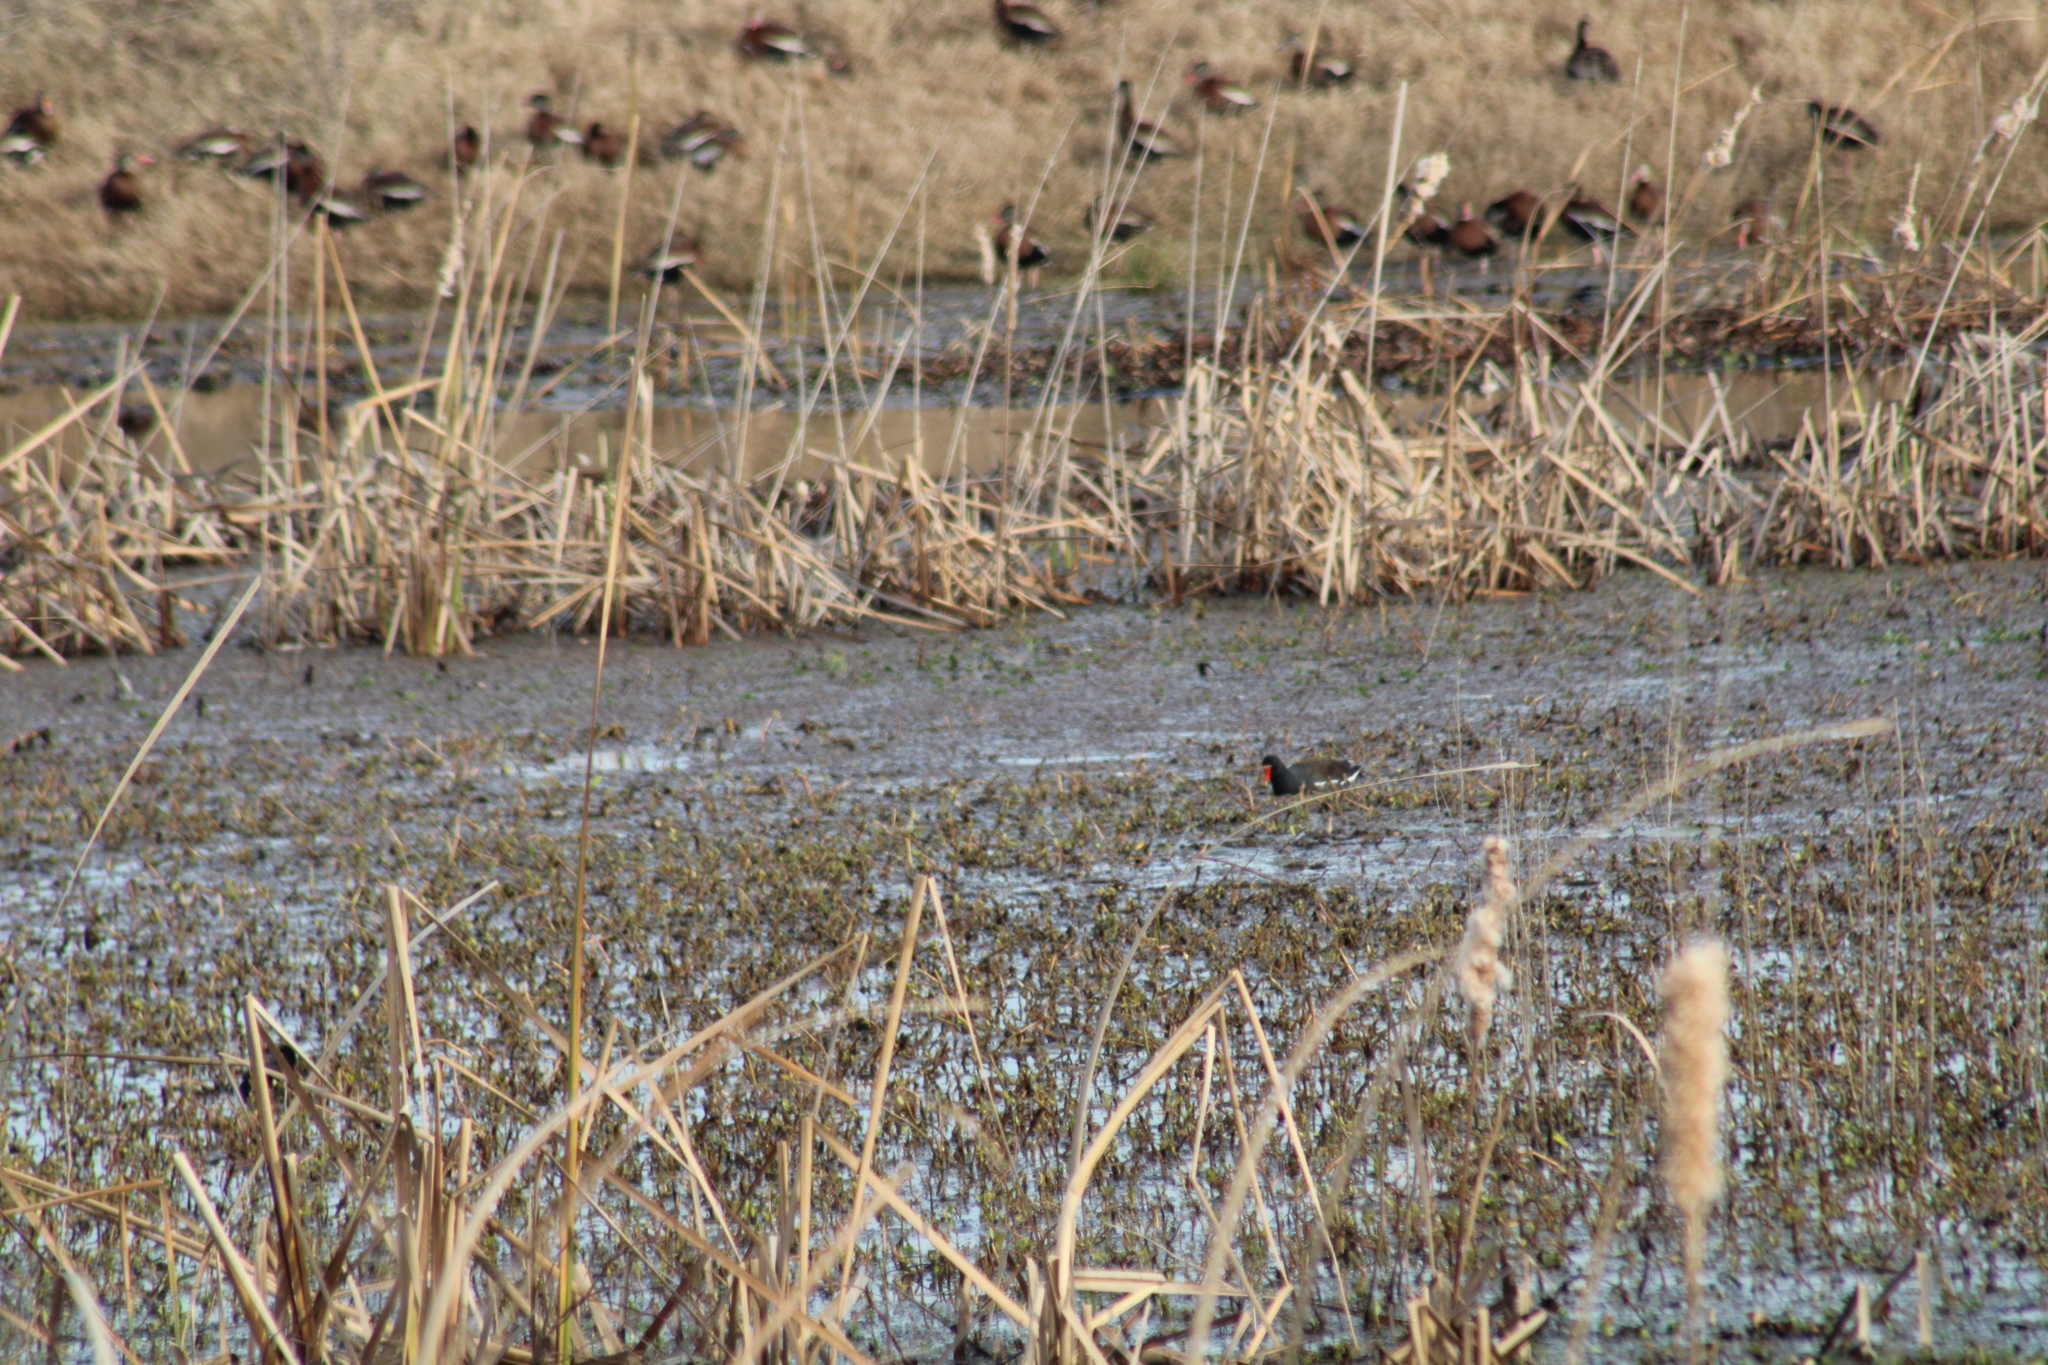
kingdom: Animalia
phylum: Chordata
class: Aves
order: Gruiformes
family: Rallidae
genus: Gallinula
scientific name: Gallinula chloropus
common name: Common moorhen
